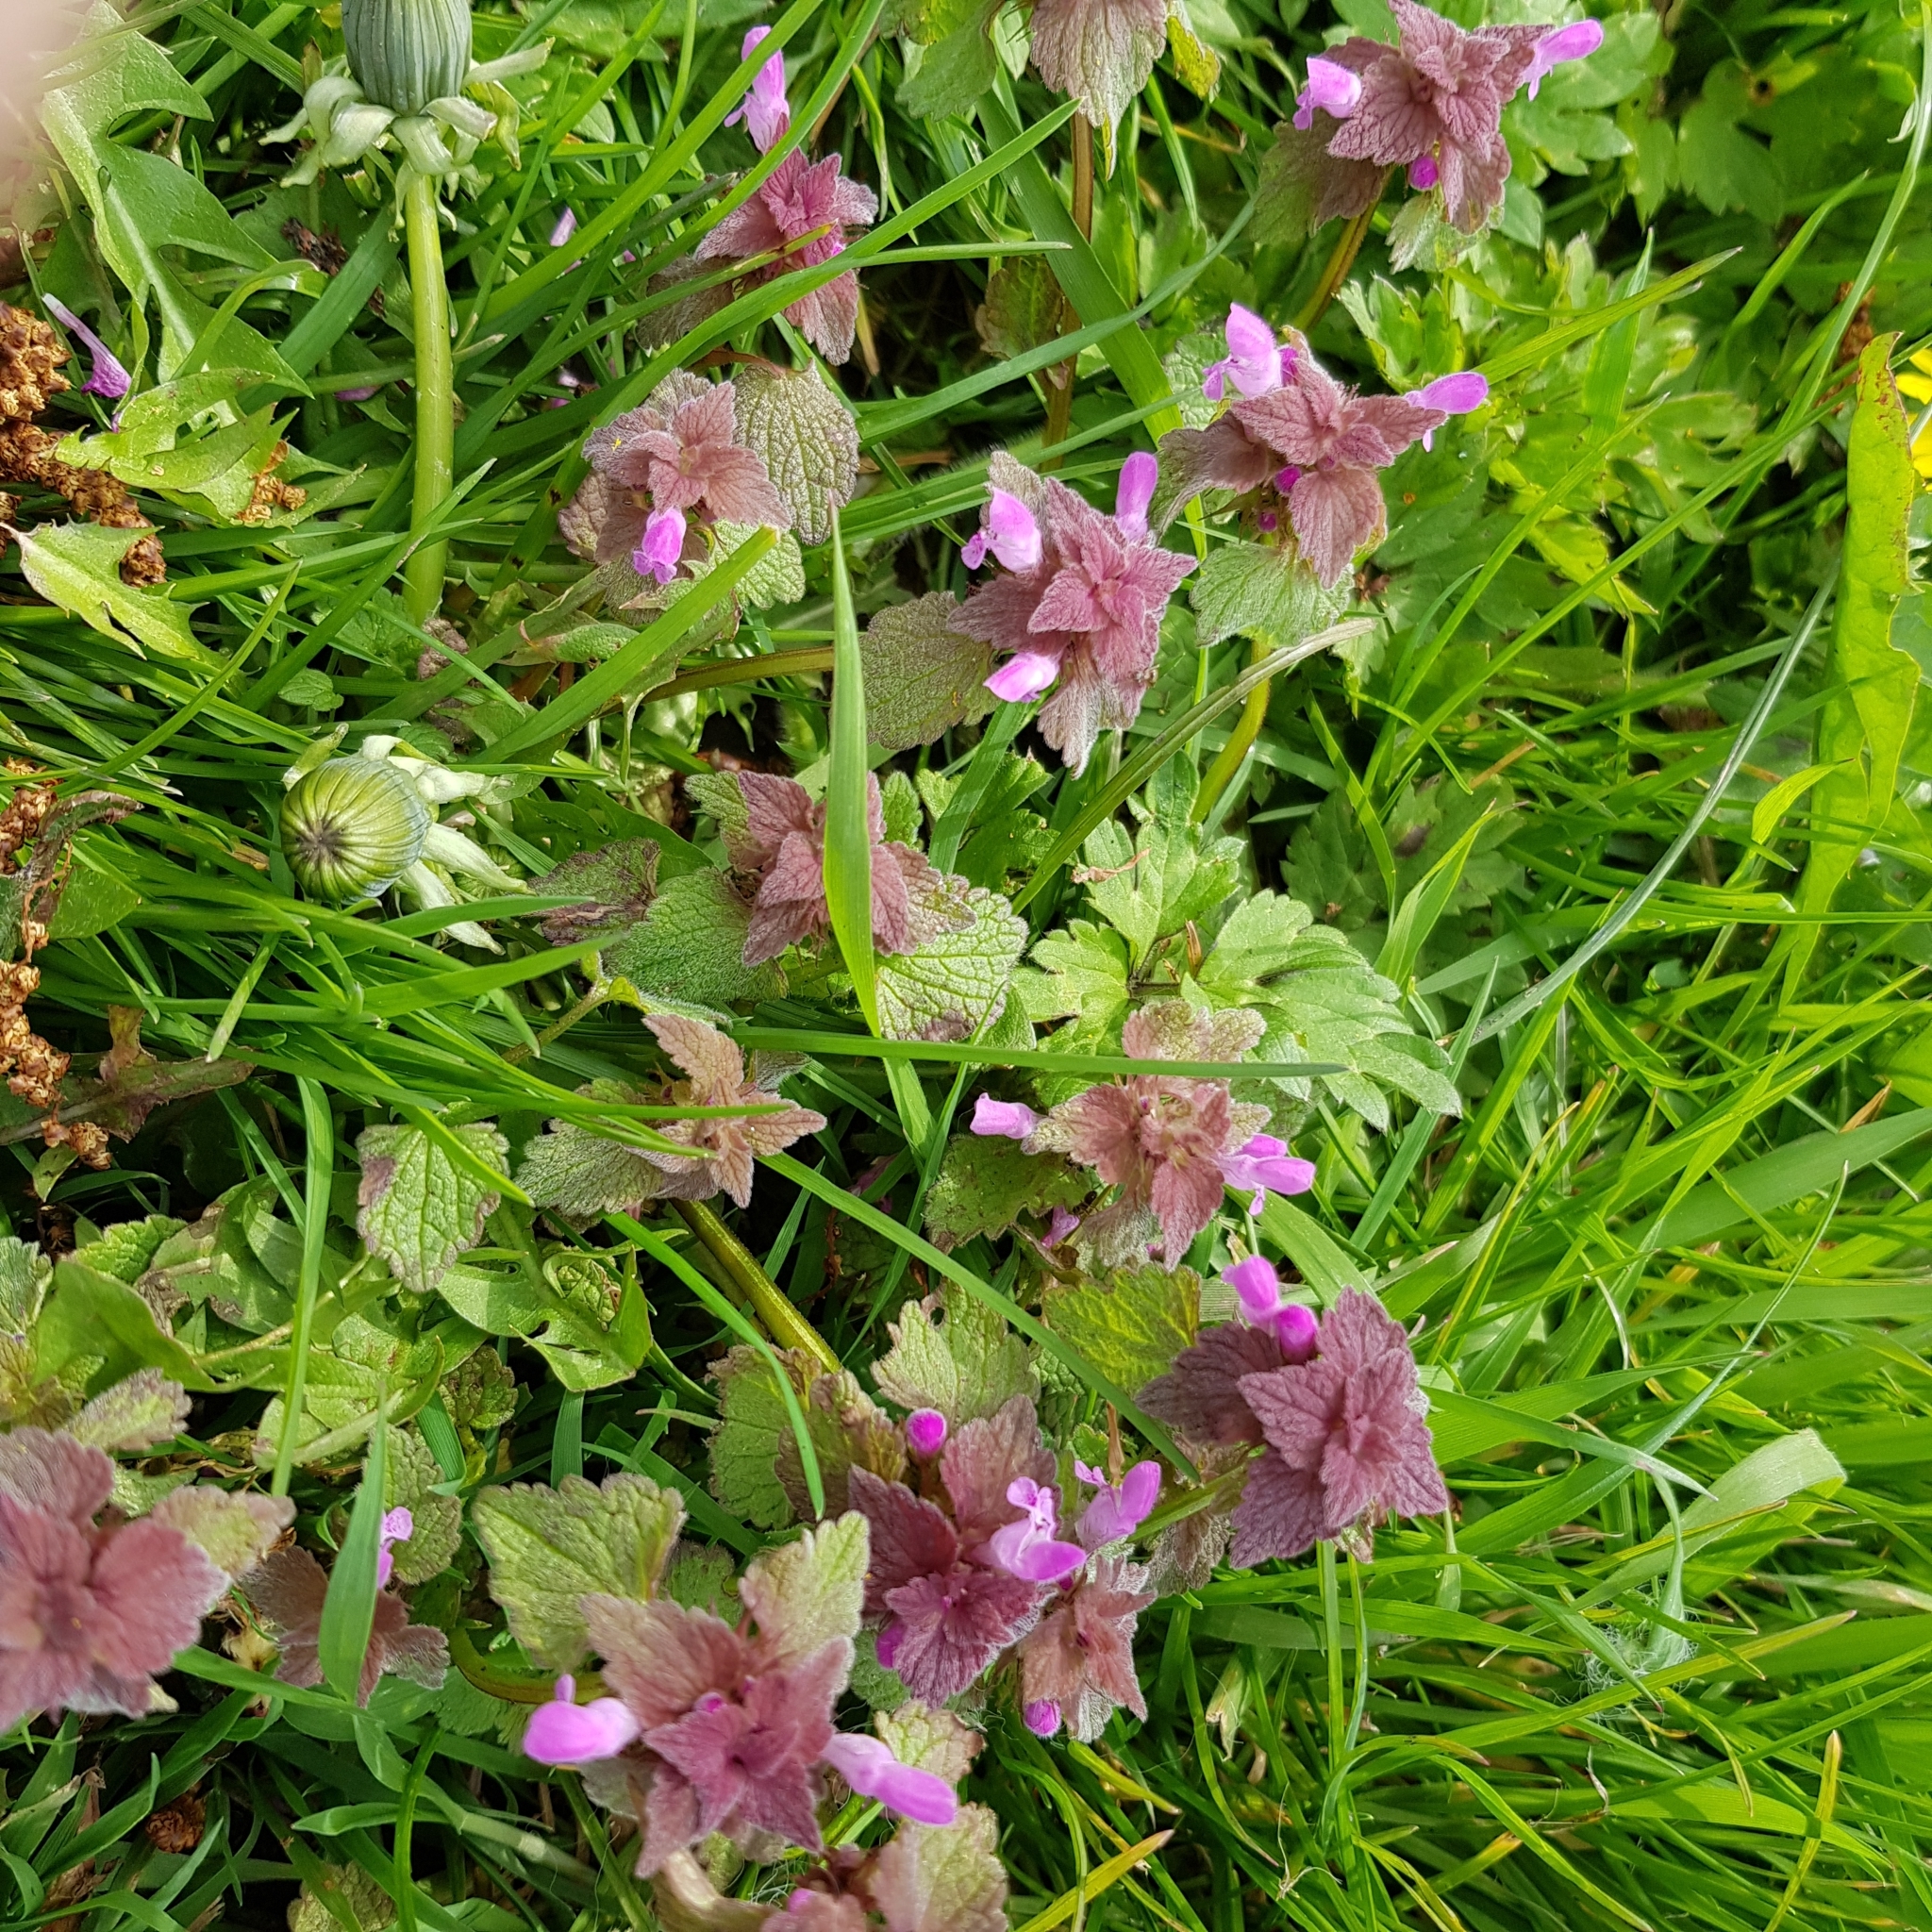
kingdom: Plantae
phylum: Tracheophyta
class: Magnoliopsida
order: Lamiales
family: Lamiaceae
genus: Lamium
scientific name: Lamium purpureum
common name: Red dead-nettle
